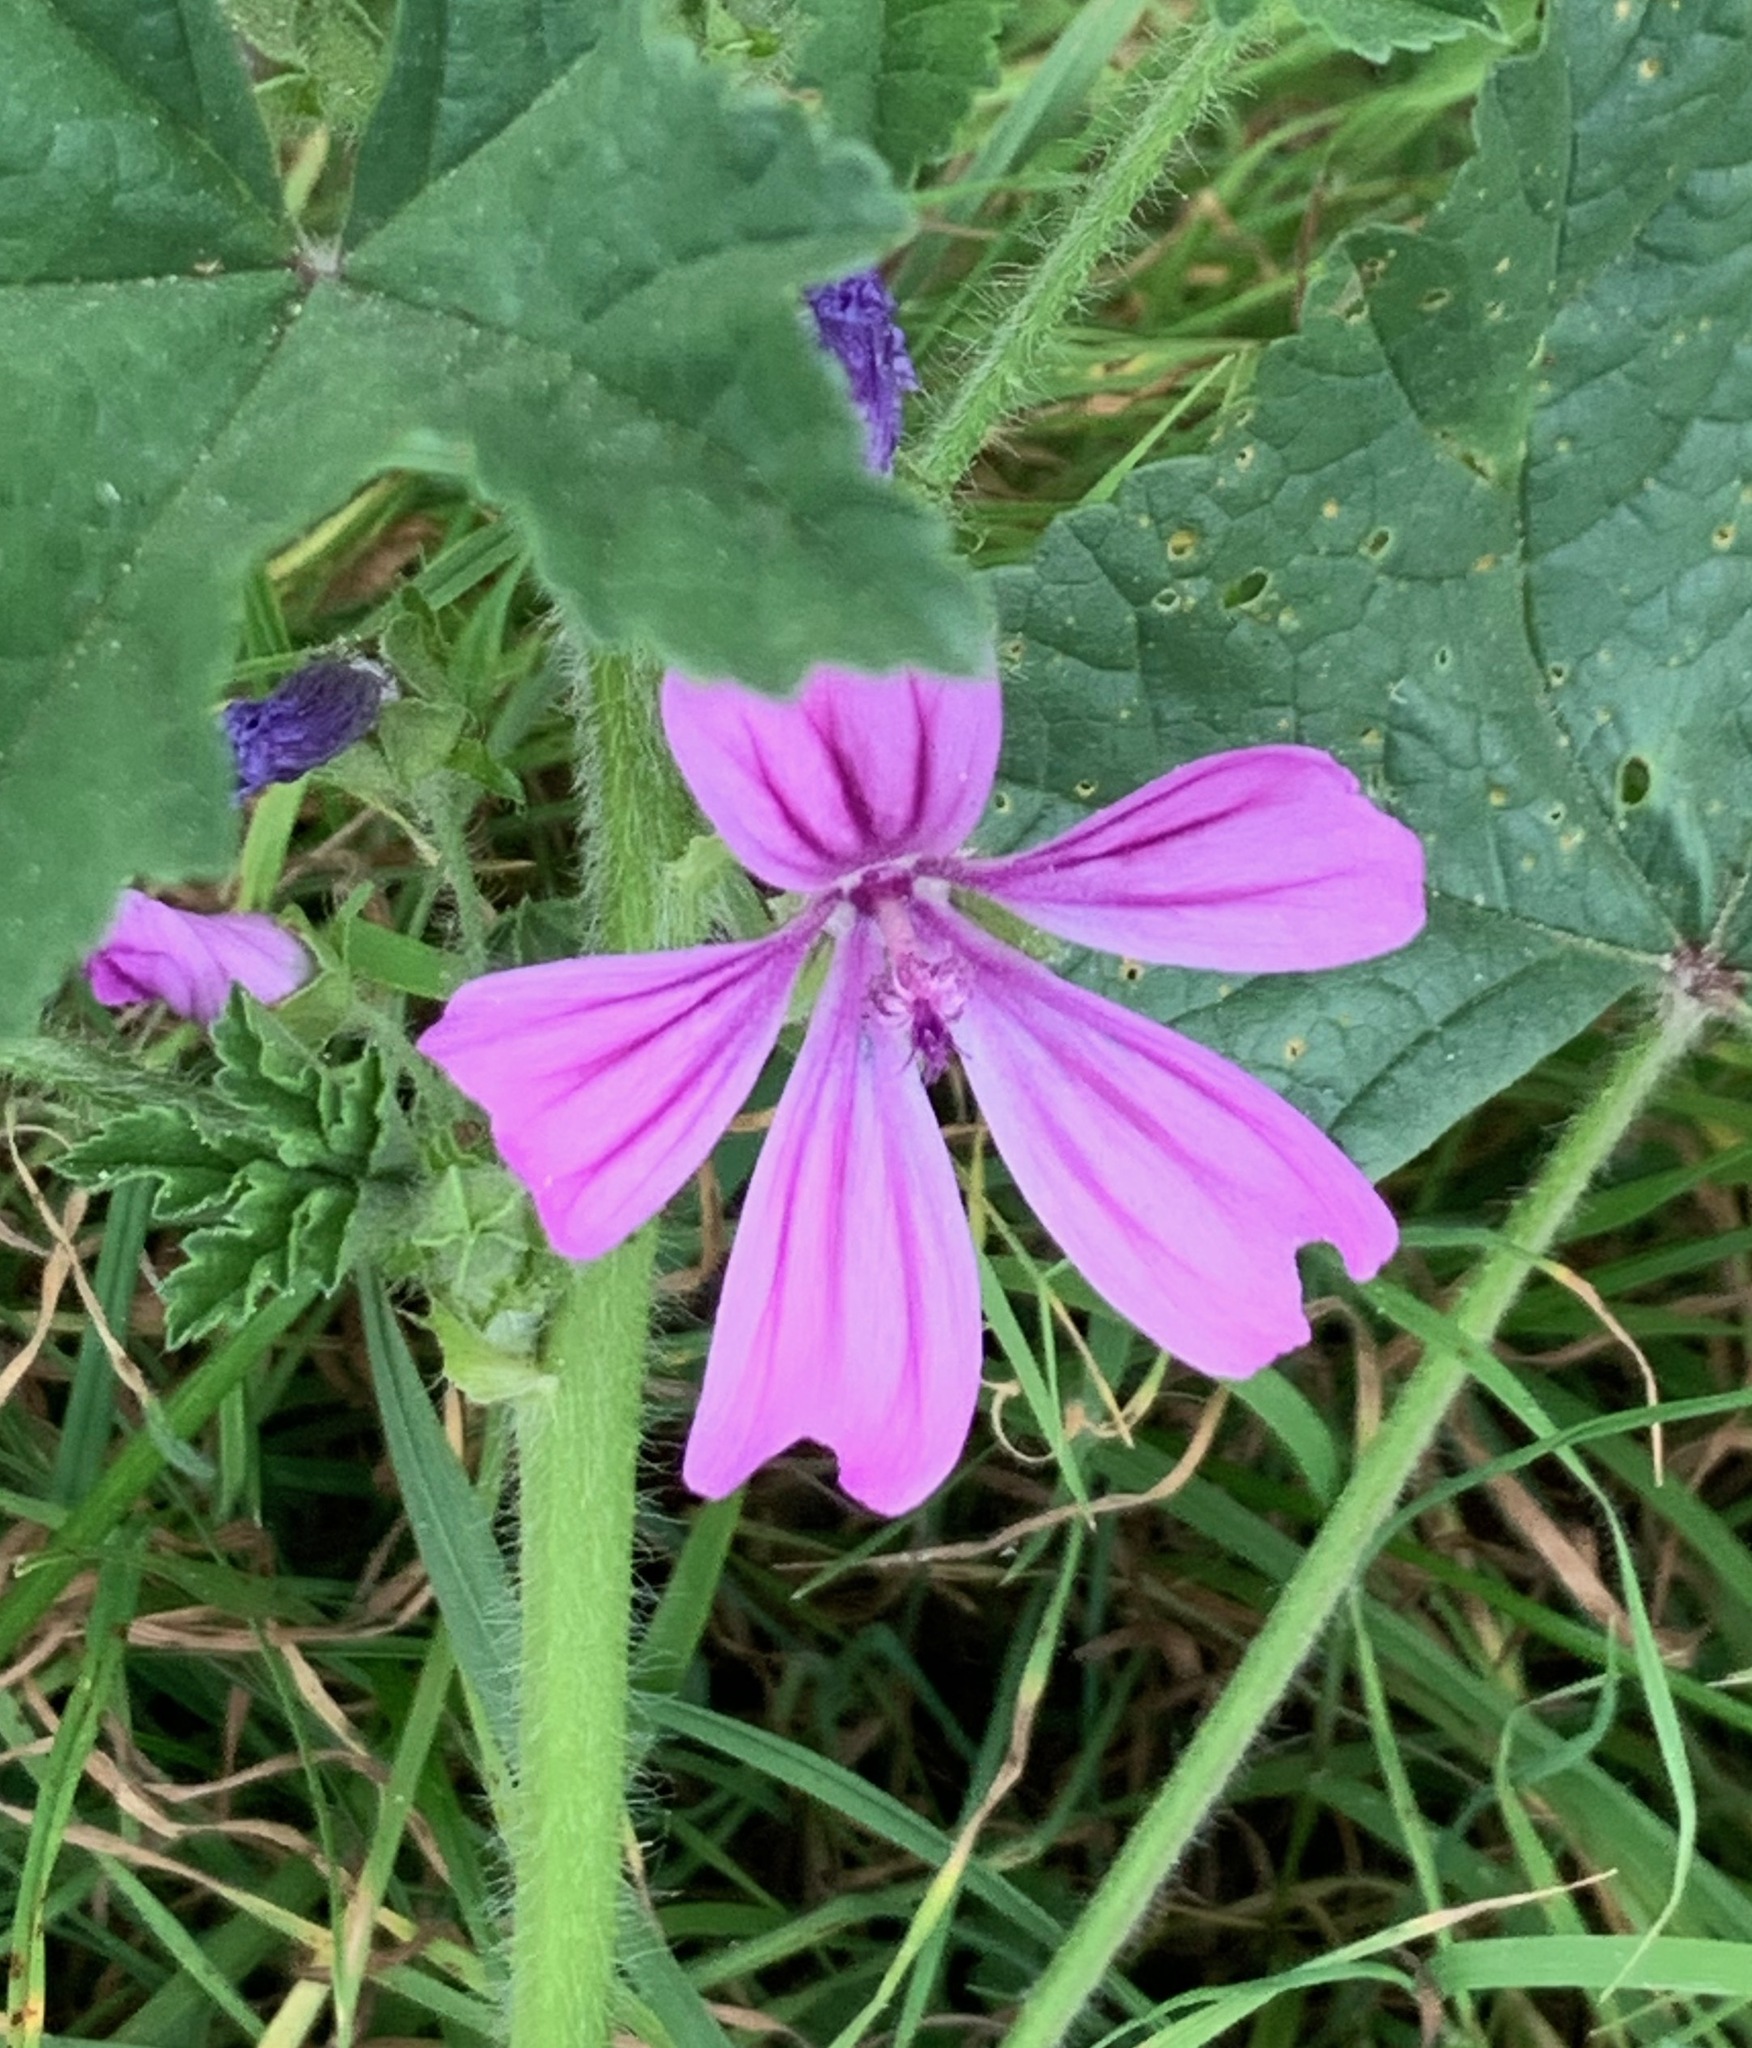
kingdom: Plantae
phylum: Tracheophyta
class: Magnoliopsida
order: Malvales
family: Malvaceae
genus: Malva
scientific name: Malva sylvestris
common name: Common mallow
